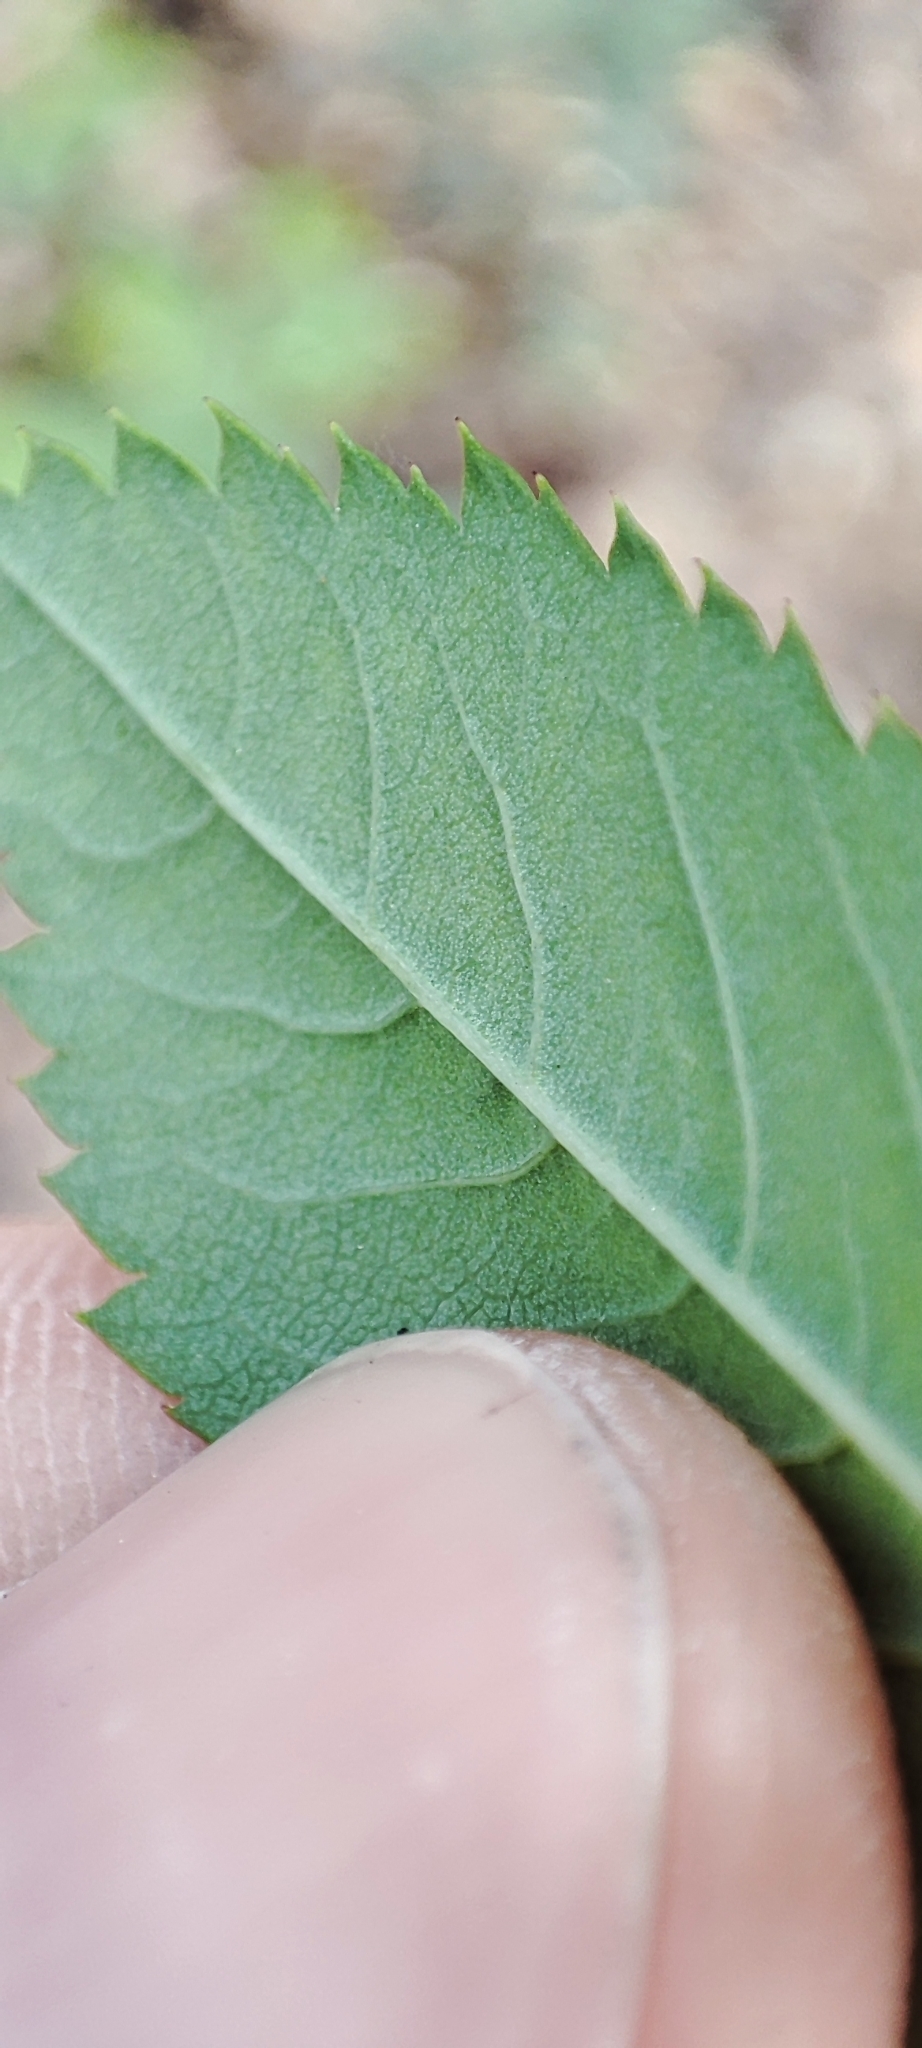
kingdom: Plantae
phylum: Tracheophyta
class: Magnoliopsida
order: Rosales
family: Rosaceae
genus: Rosa
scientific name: Rosa glabrifolia
